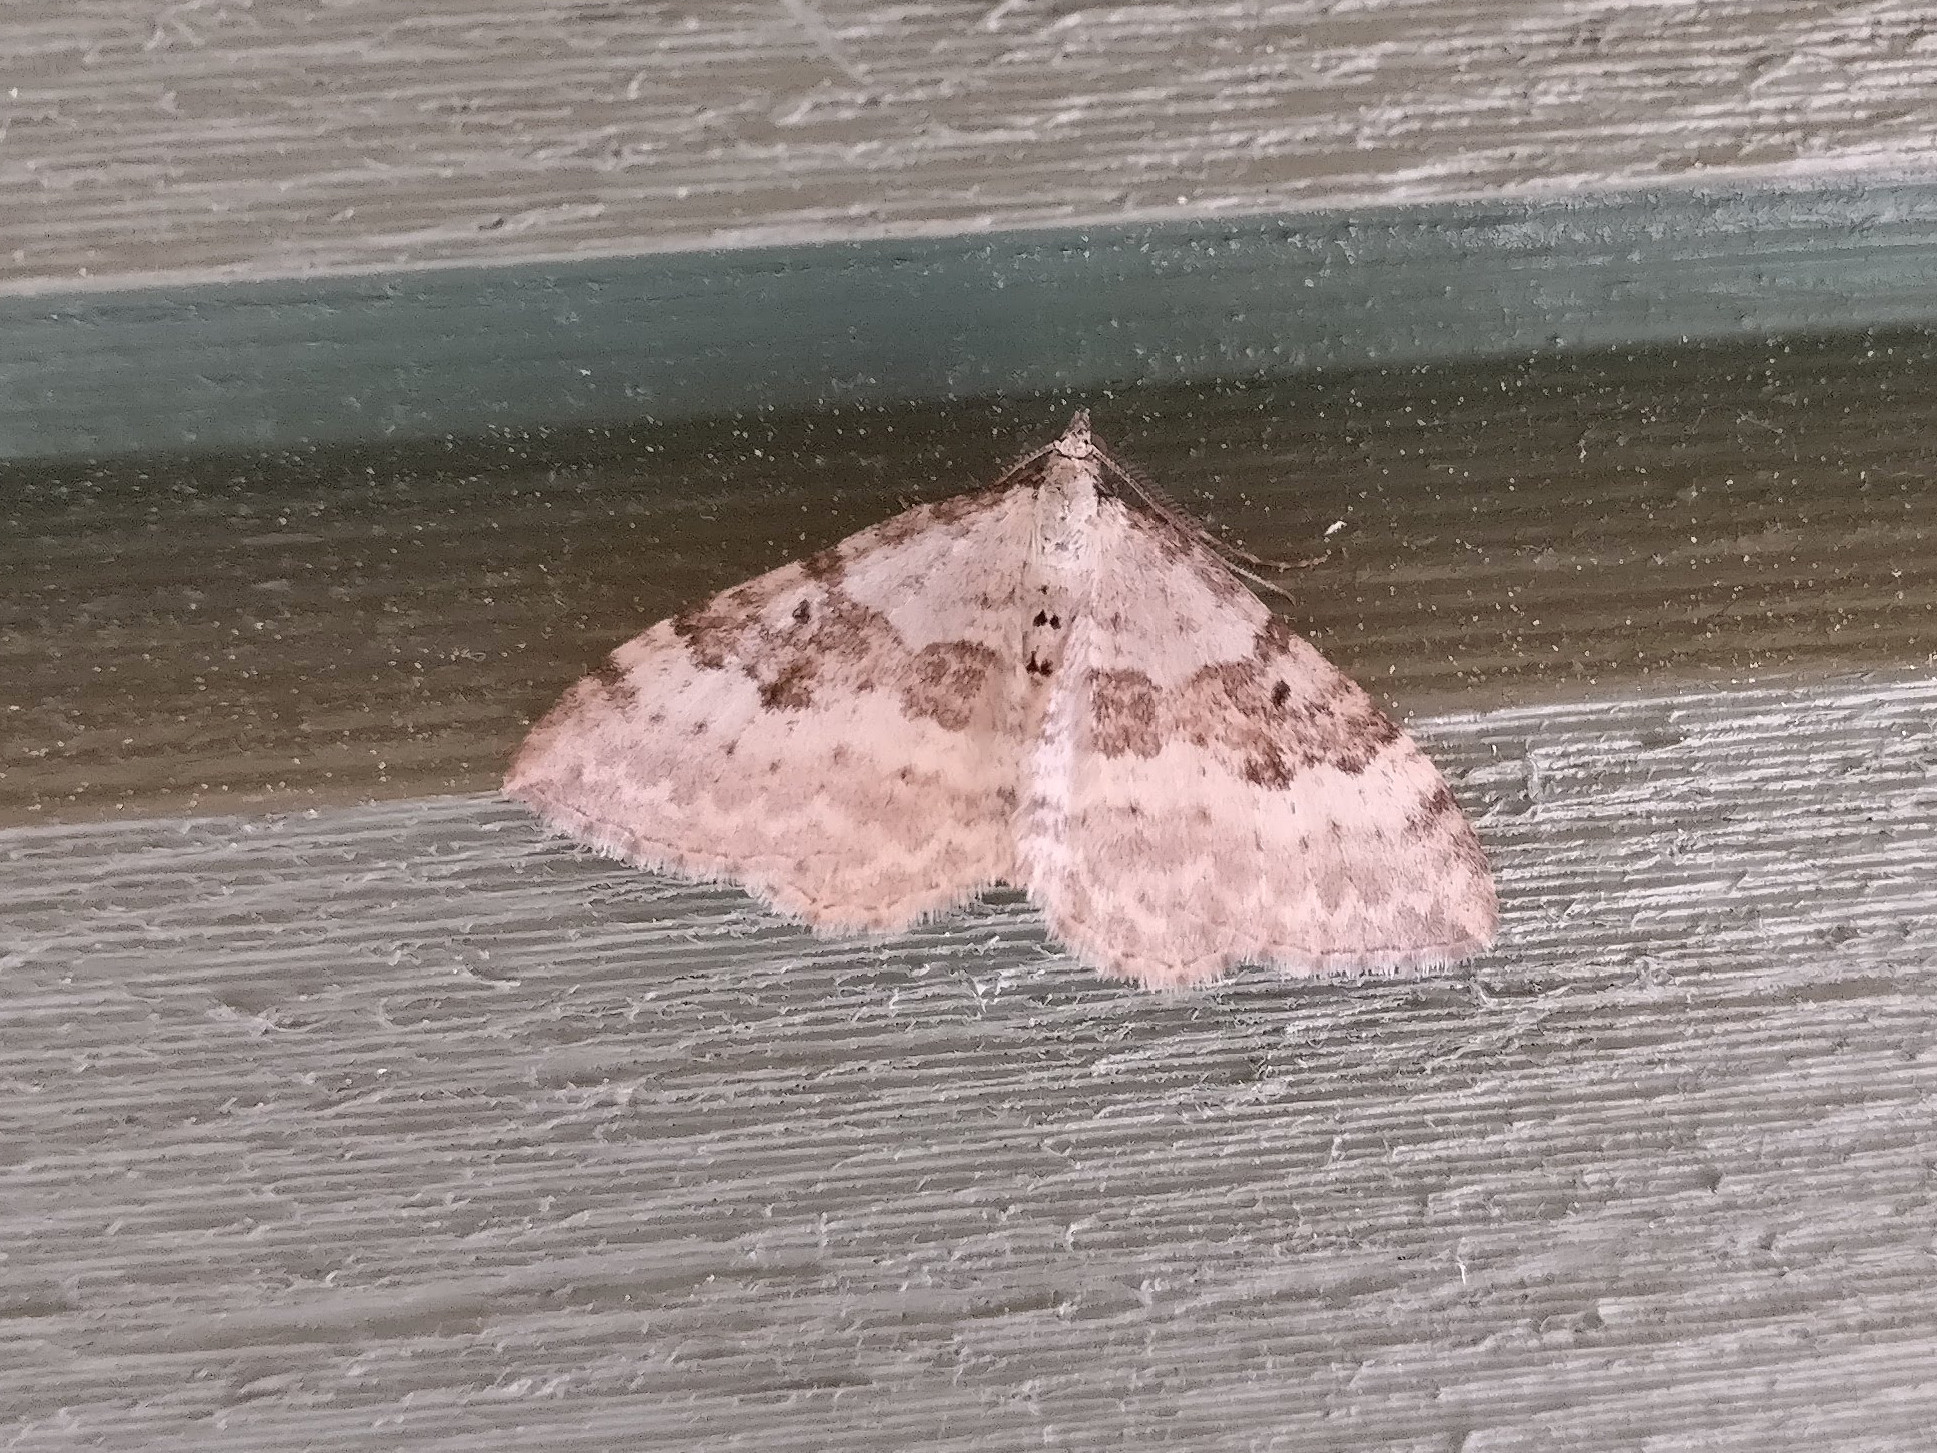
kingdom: Animalia
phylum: Arthropoda
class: Insecta
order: Lepidoptera
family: Geometridae
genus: Xanthorhoe
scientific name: Xanthorhoe montanata
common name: Silver-ground carpet
